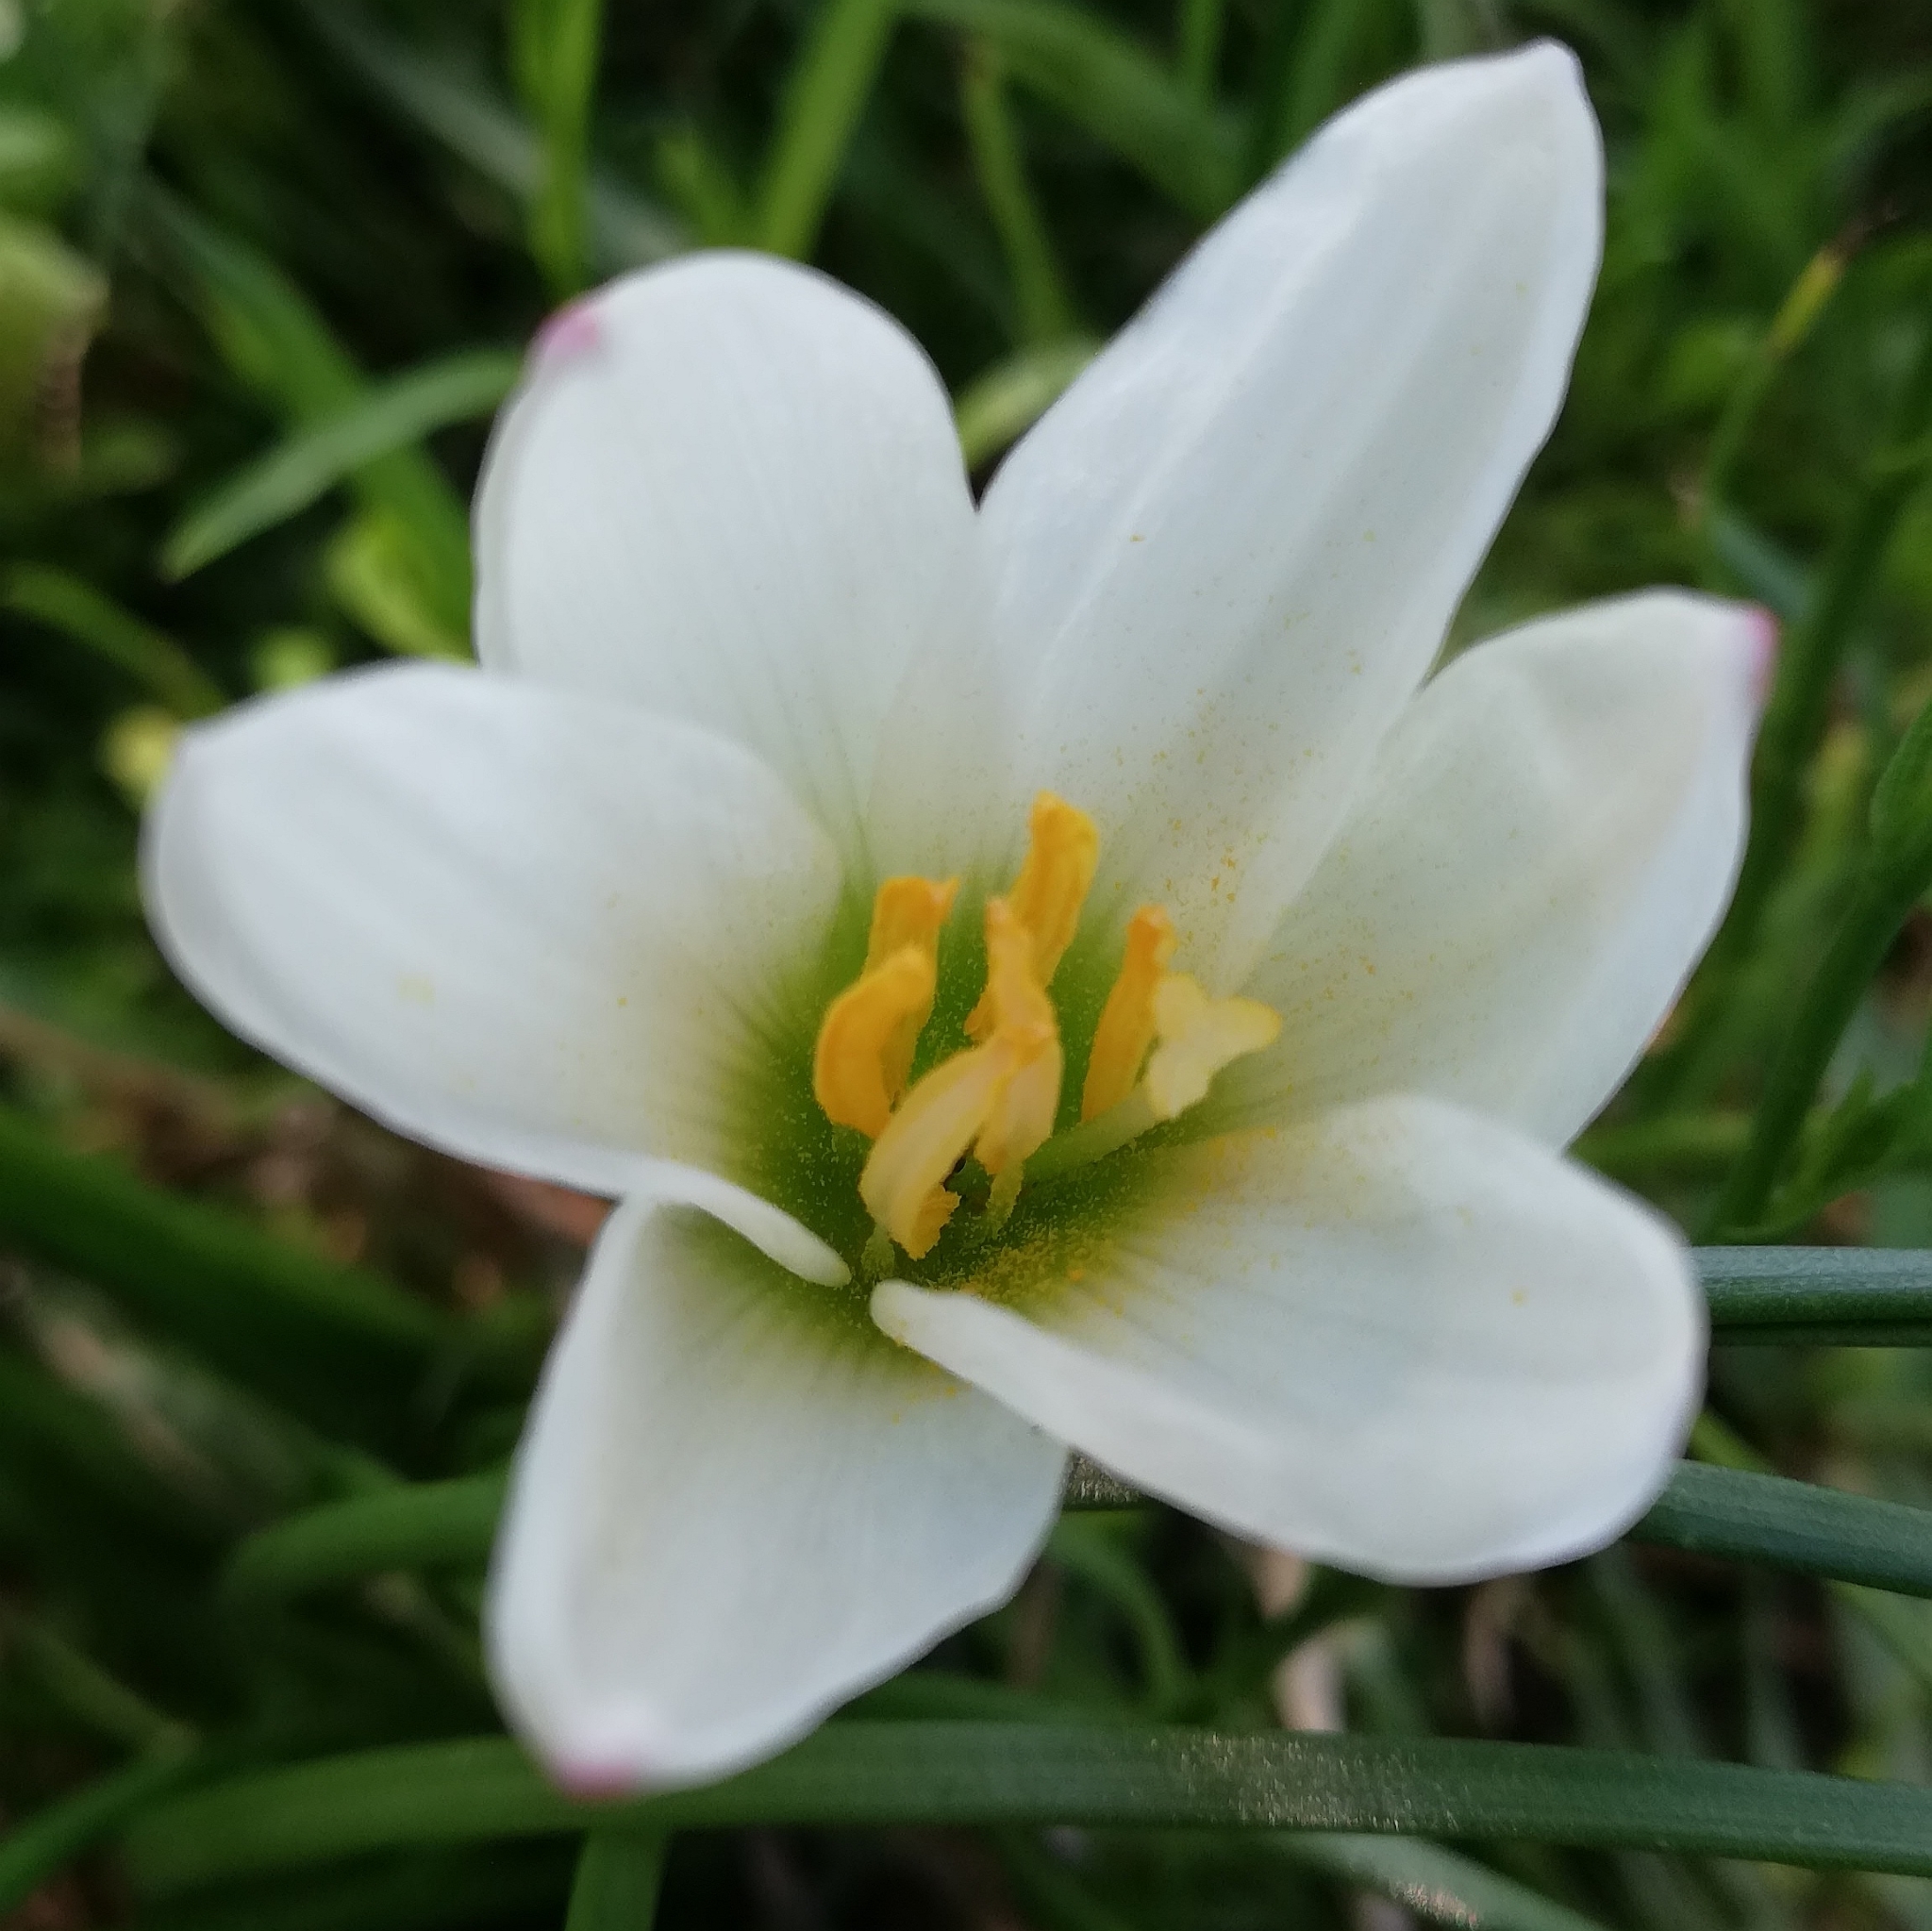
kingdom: Plantae
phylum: Tracheophyta
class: Liliopsida
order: Asparagales
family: Amaryllidaceae
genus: Zephyranthes
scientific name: Zephyranthes candida
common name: Autumn zephyrlily
